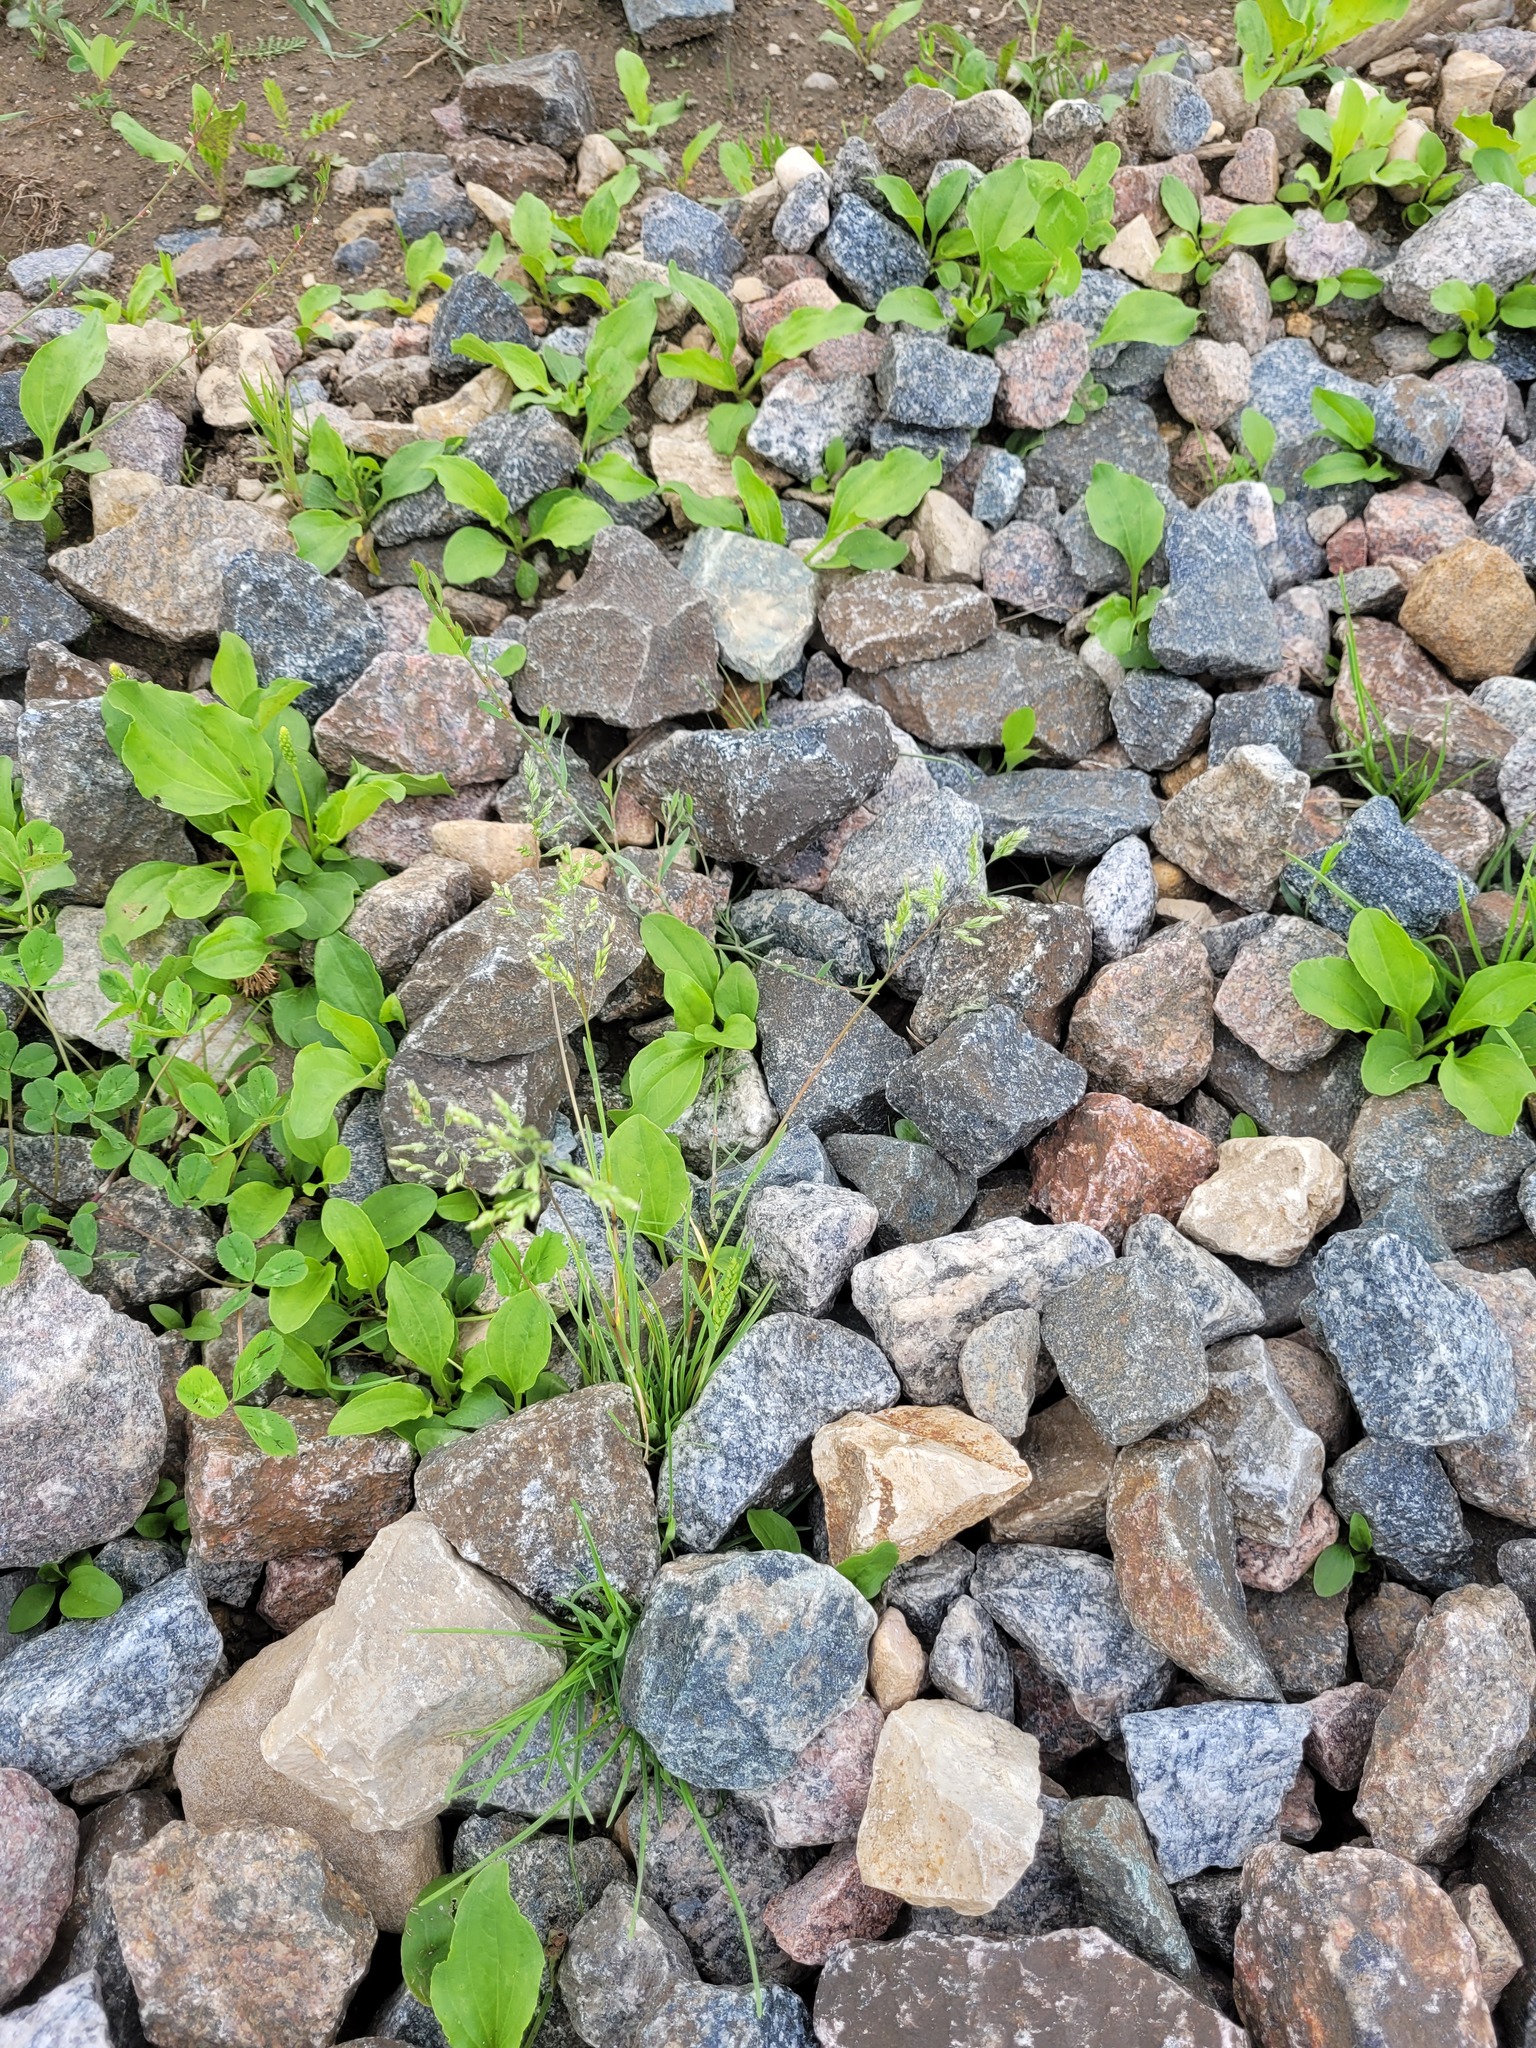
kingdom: Plantae
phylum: Tracheophyta
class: Liliopsida
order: Poales
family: Poaceae
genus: Poa
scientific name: Poa pratensis
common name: Kentucky bluegrass
